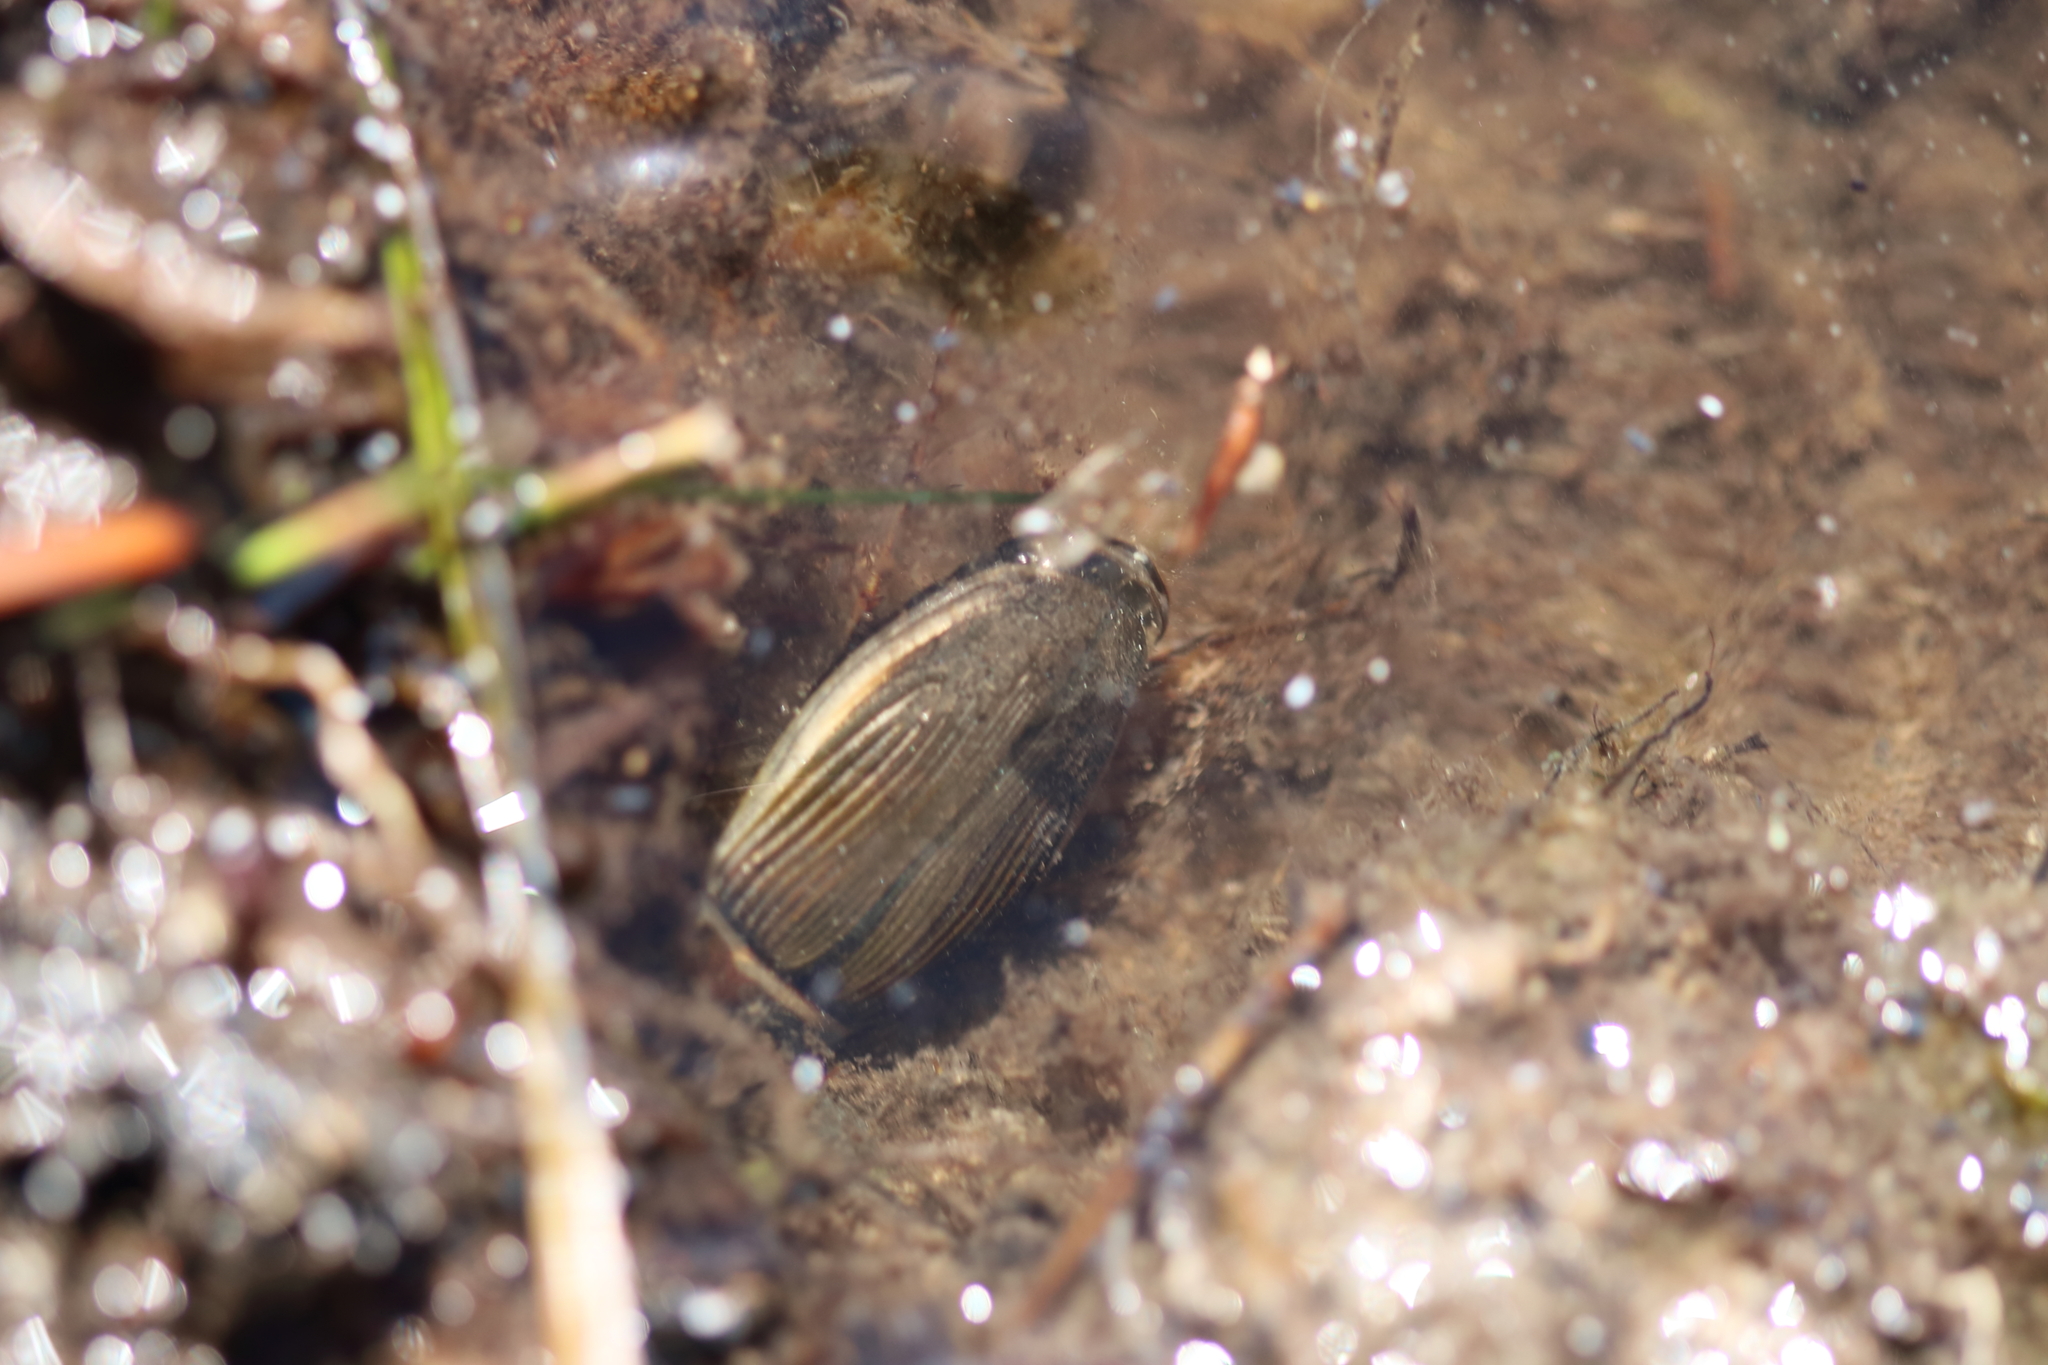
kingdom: Animalia
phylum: Arthropoda
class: Insecta
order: Coleoptera
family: Dytiscidae
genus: Dytiscus
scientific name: Dytiscus
